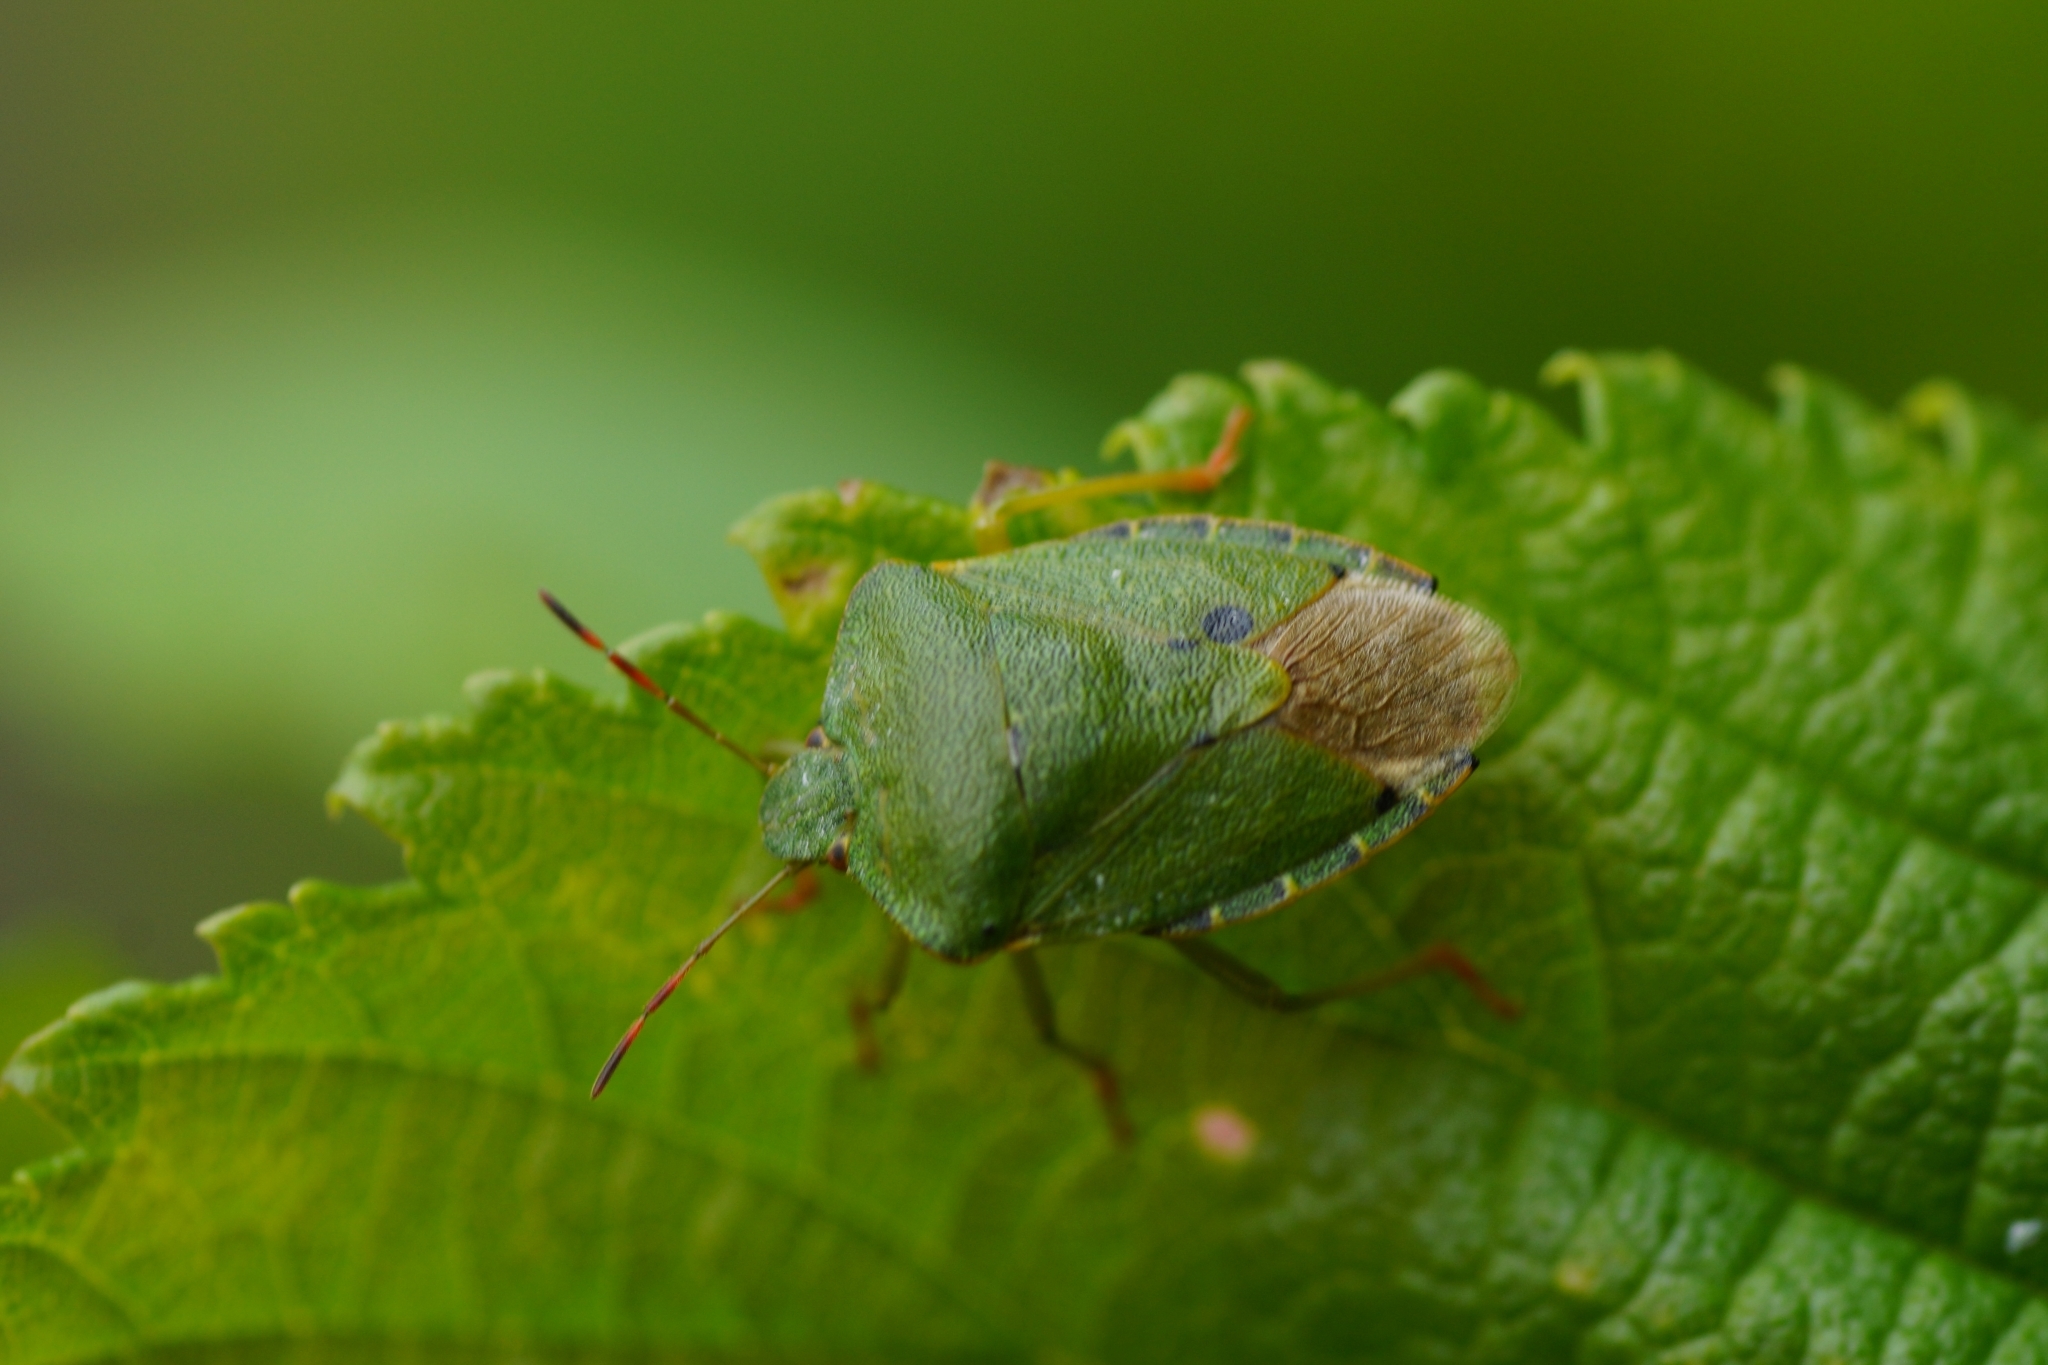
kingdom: Animalia
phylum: Arthropoda
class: Insecta
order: Hemiptera
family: Pentatomidae
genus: Palomena
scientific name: Palomena prasina
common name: Green shieldbug
